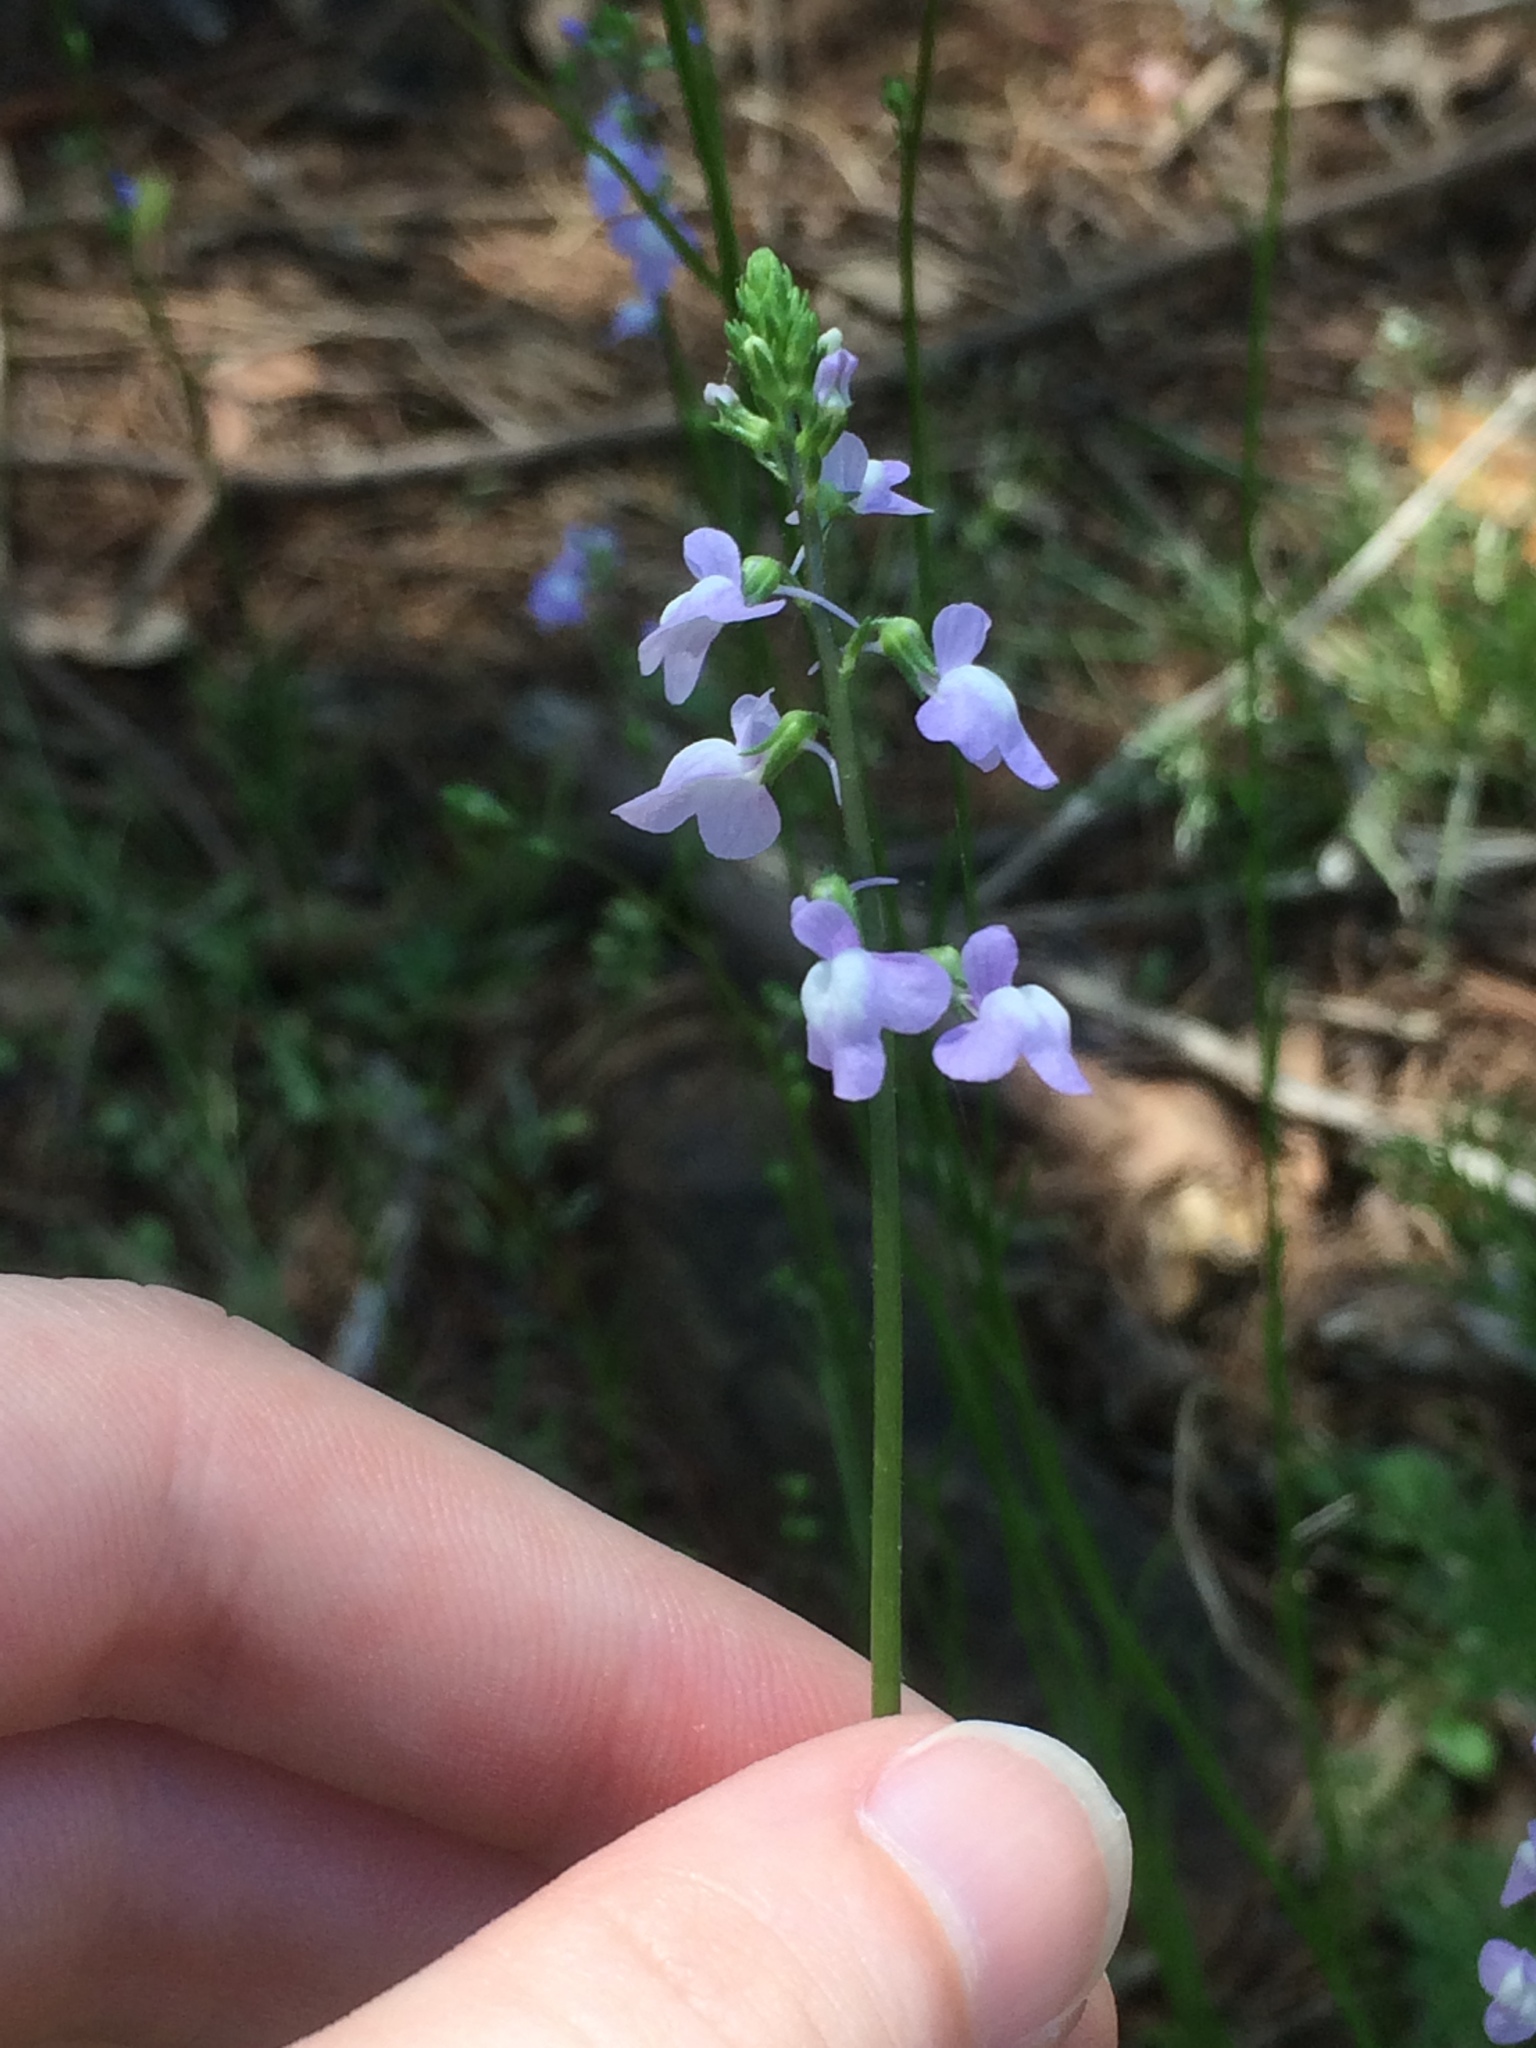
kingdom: Plantae
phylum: Tracheophyta
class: Magnoliopsida
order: Lamiales
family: Plantaginaceae
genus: Nuttallanthus
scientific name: Nuttallanthus canadensis
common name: Blue toadflax
